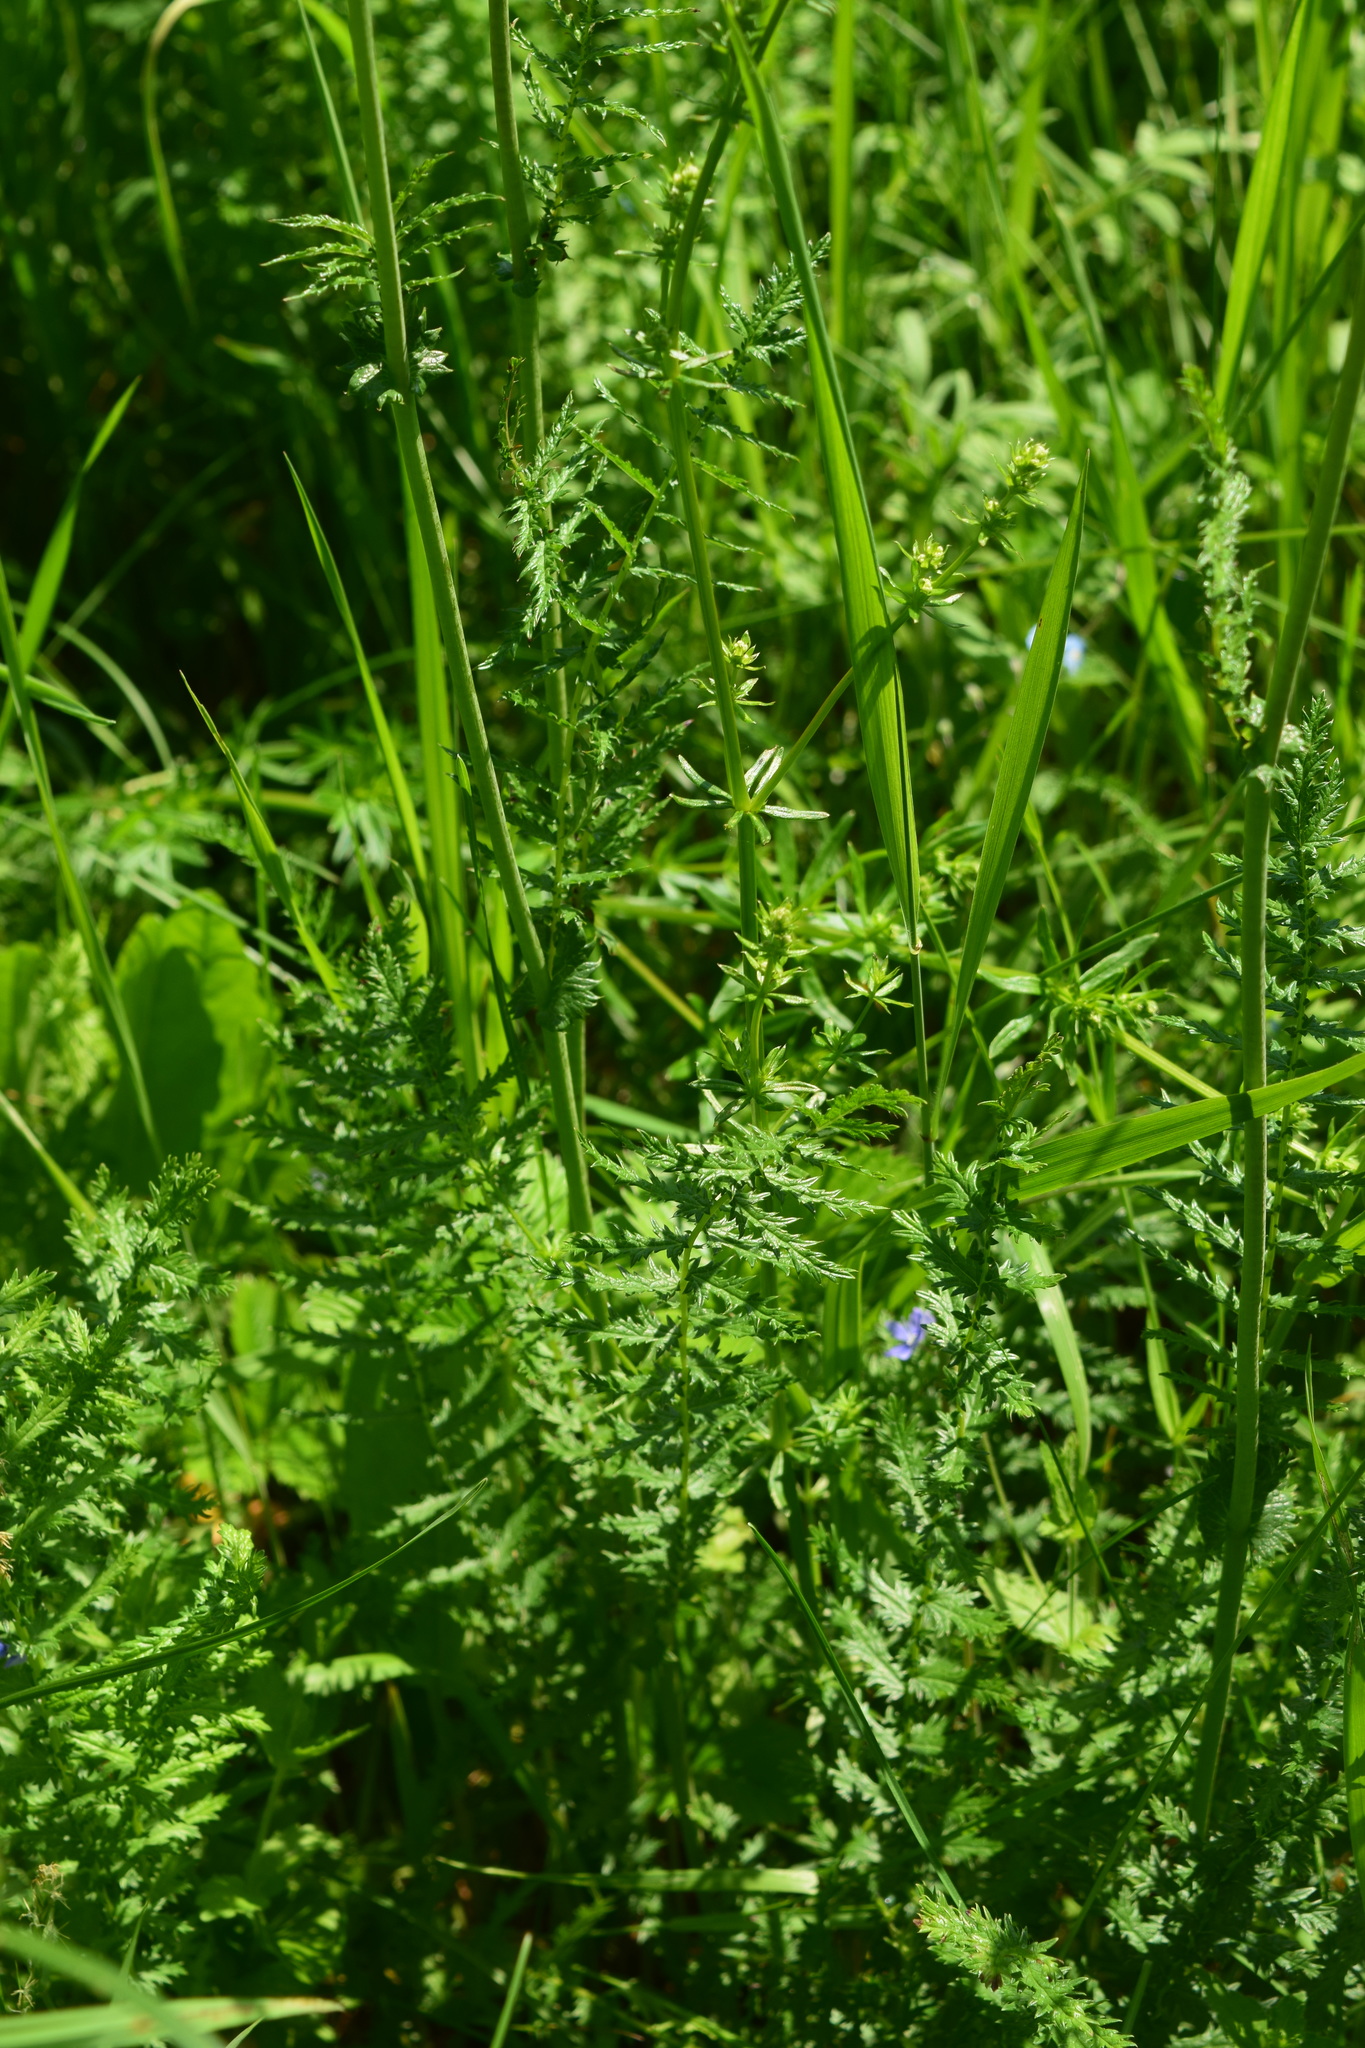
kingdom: Plantae
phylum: Tracheophyta
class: Magnoliopsida
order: Rosales
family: Rosaceae
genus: Filipendula
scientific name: Filipendula vulgaris
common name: Dropwort
